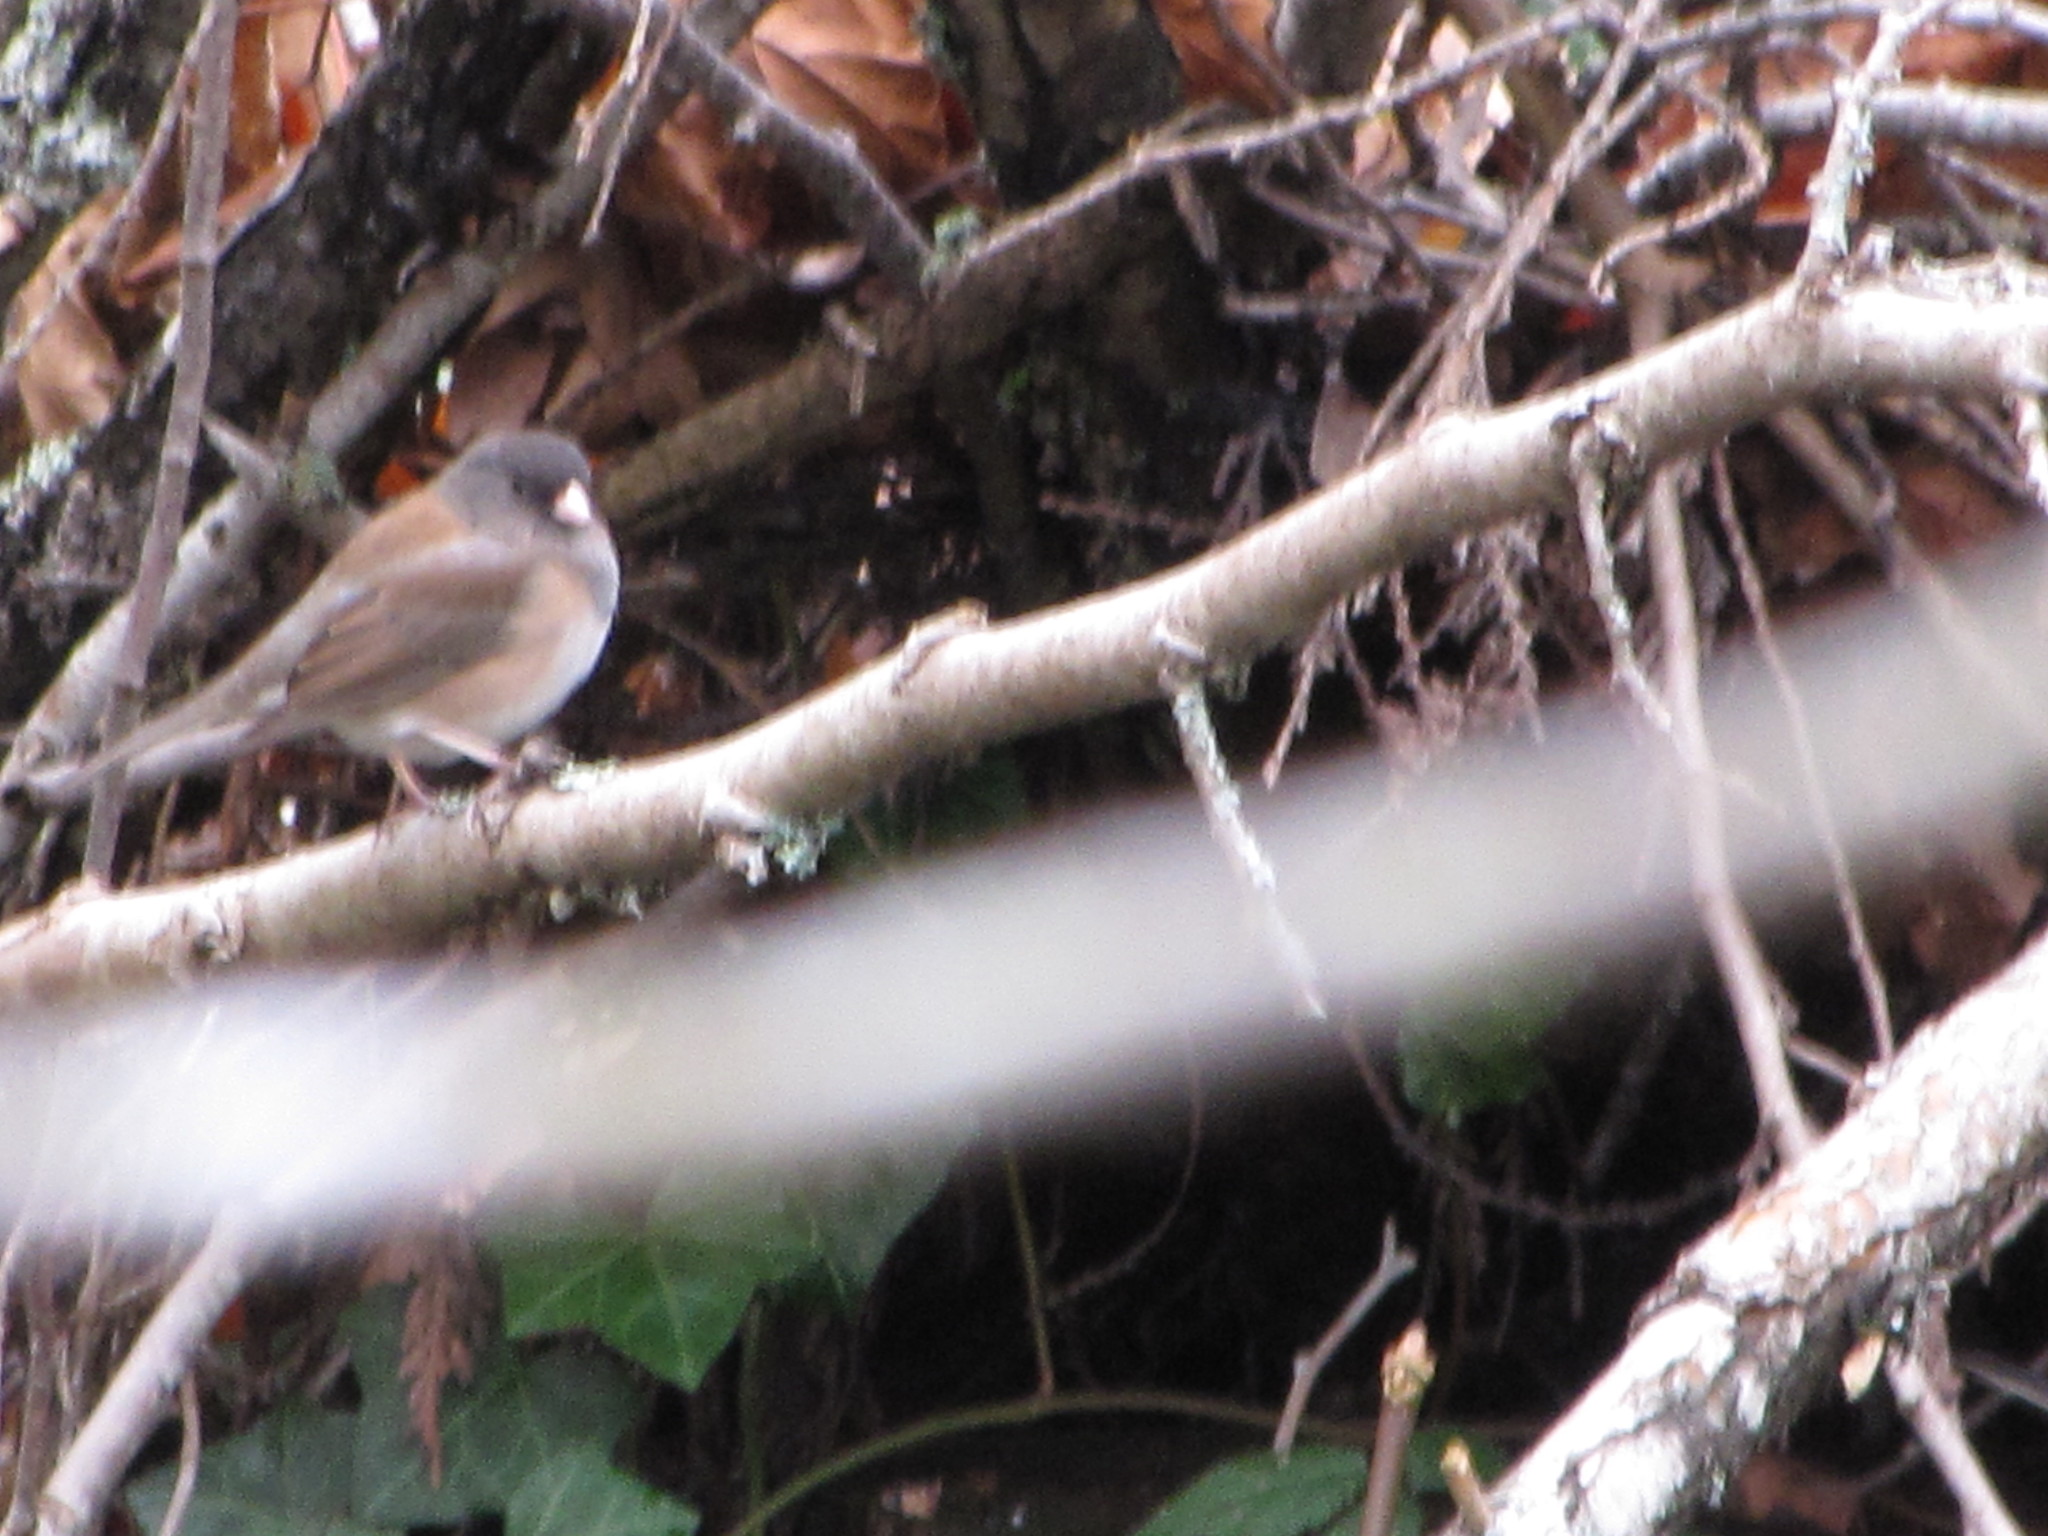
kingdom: Animalia
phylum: Chordata
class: Aves
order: Passeriformes
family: Passerellidae
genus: Junco
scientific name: Junco hyemalis
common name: Dark-eyed junco
